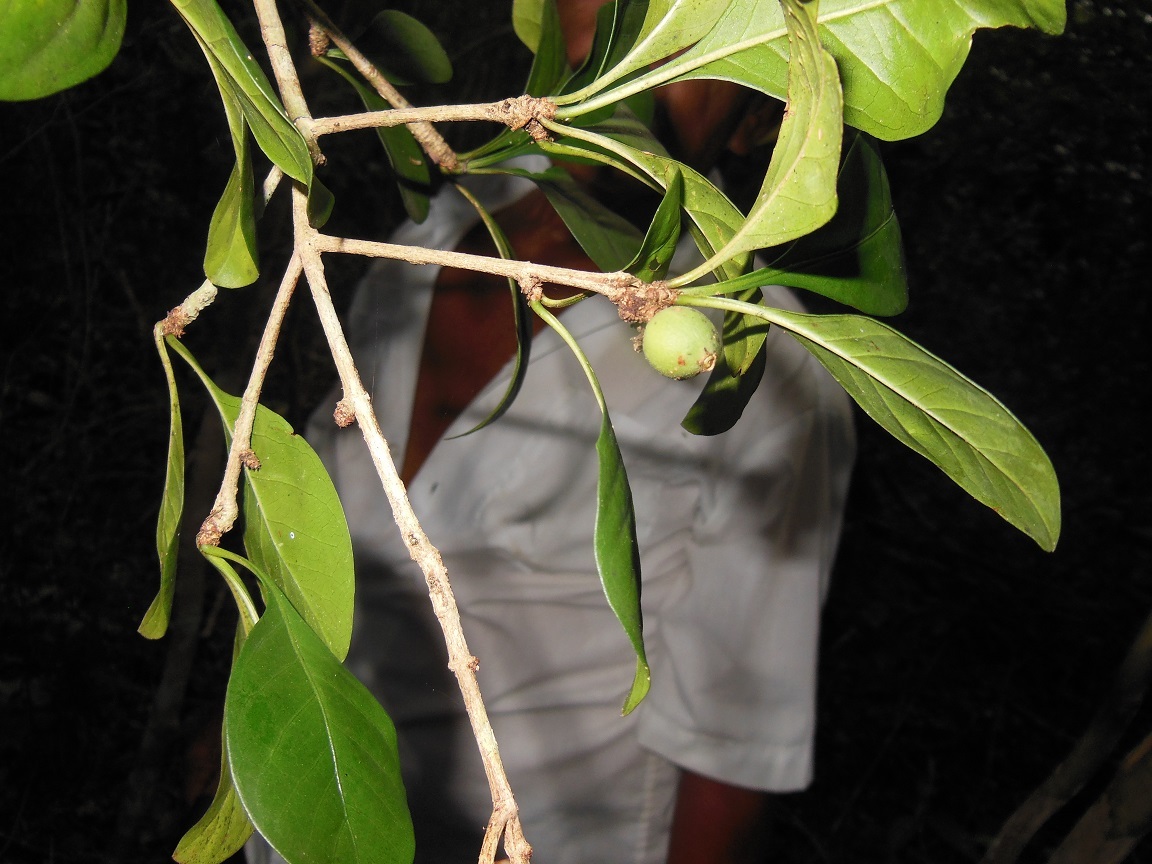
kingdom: Plantae
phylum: Tracheophyta
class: Magnoliopsida
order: Gentianales
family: Rubiaceae
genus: Randia
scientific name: Randia aculeata
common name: Inkberry
